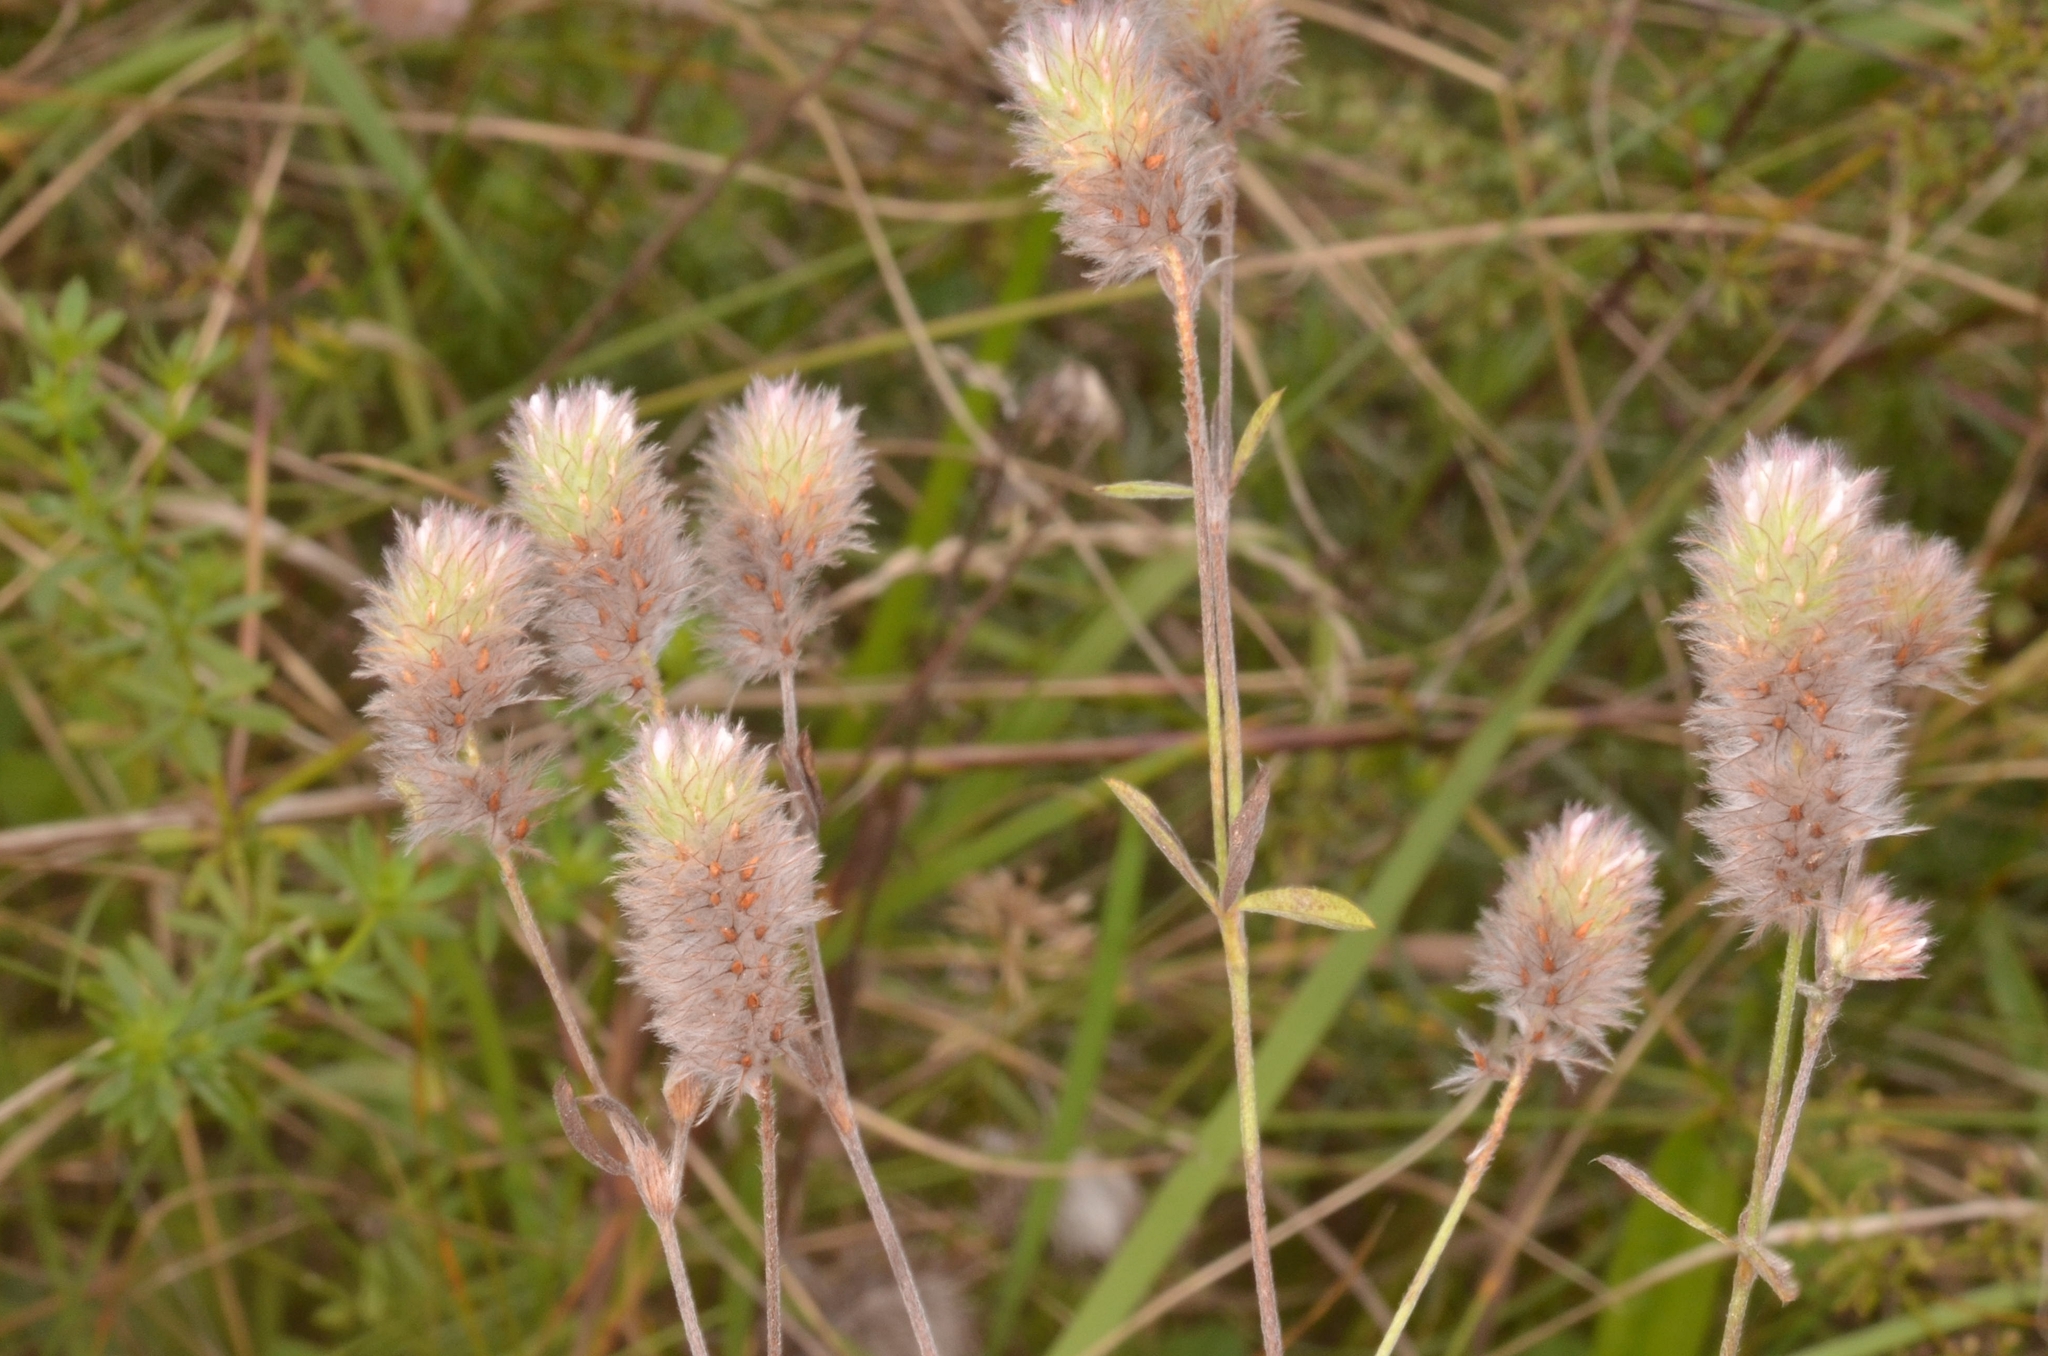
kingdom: Plantae
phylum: Tracheophyta
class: Magnoliopsida
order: Fabales
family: Fabaceae
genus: Trifolium
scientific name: Trifolium arvense
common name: Hare's-foot clover
